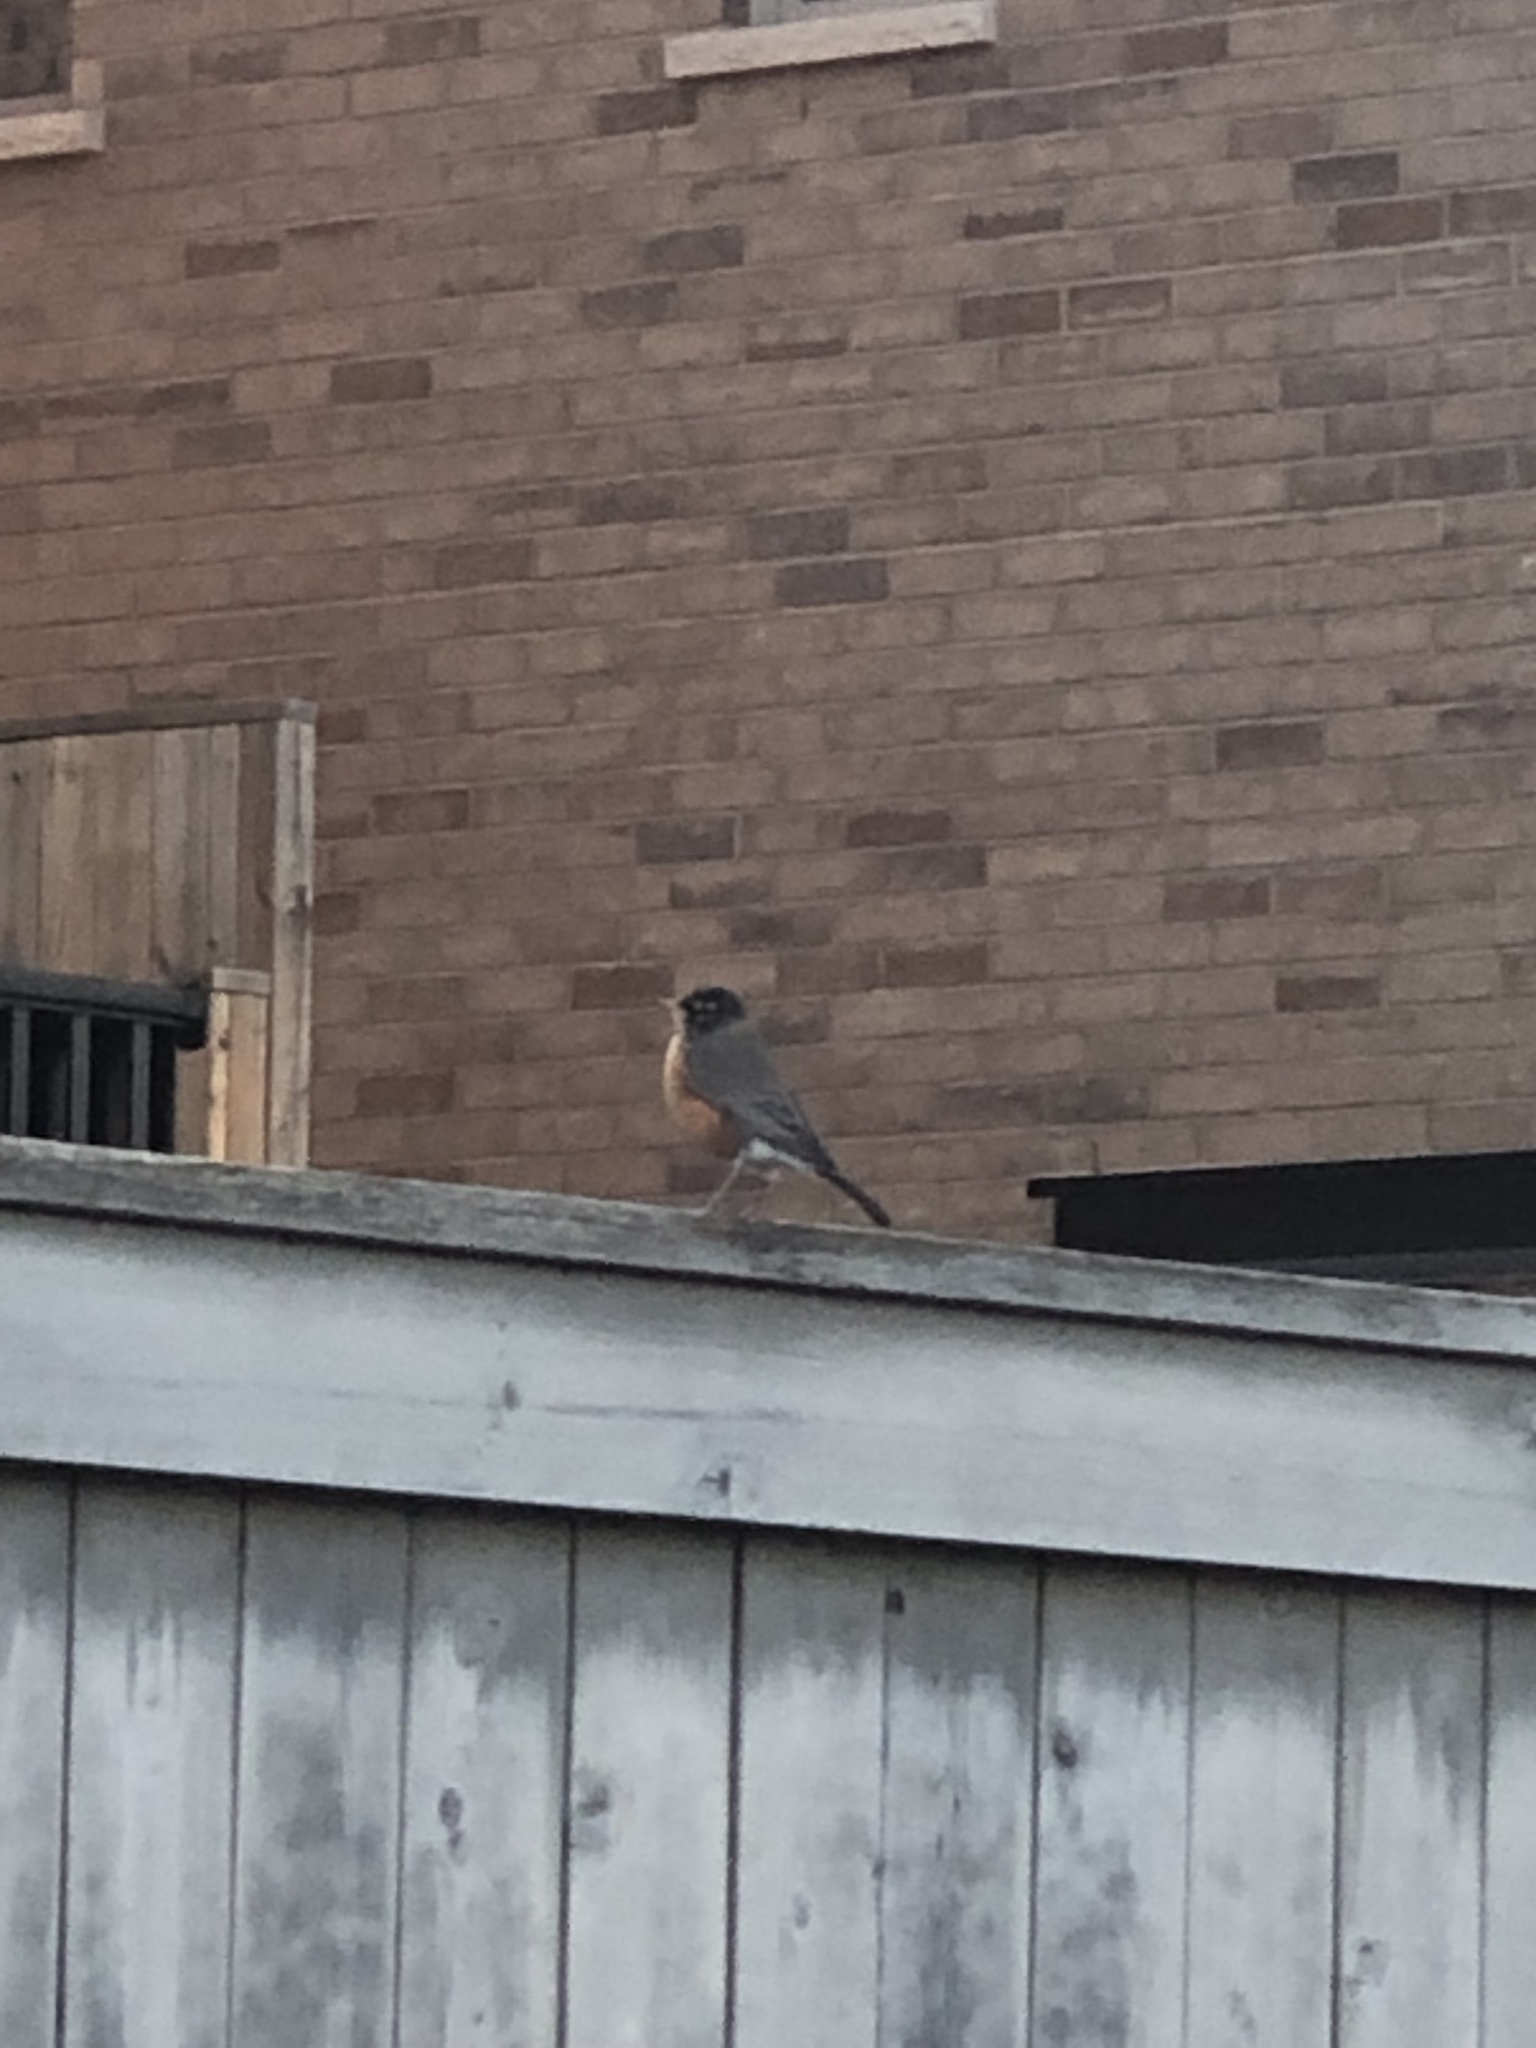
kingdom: Animalia
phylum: Chordata
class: Aves
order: Passeriformes
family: Turdidae
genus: Turdus
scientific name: Turdus migratorius
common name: American robin
